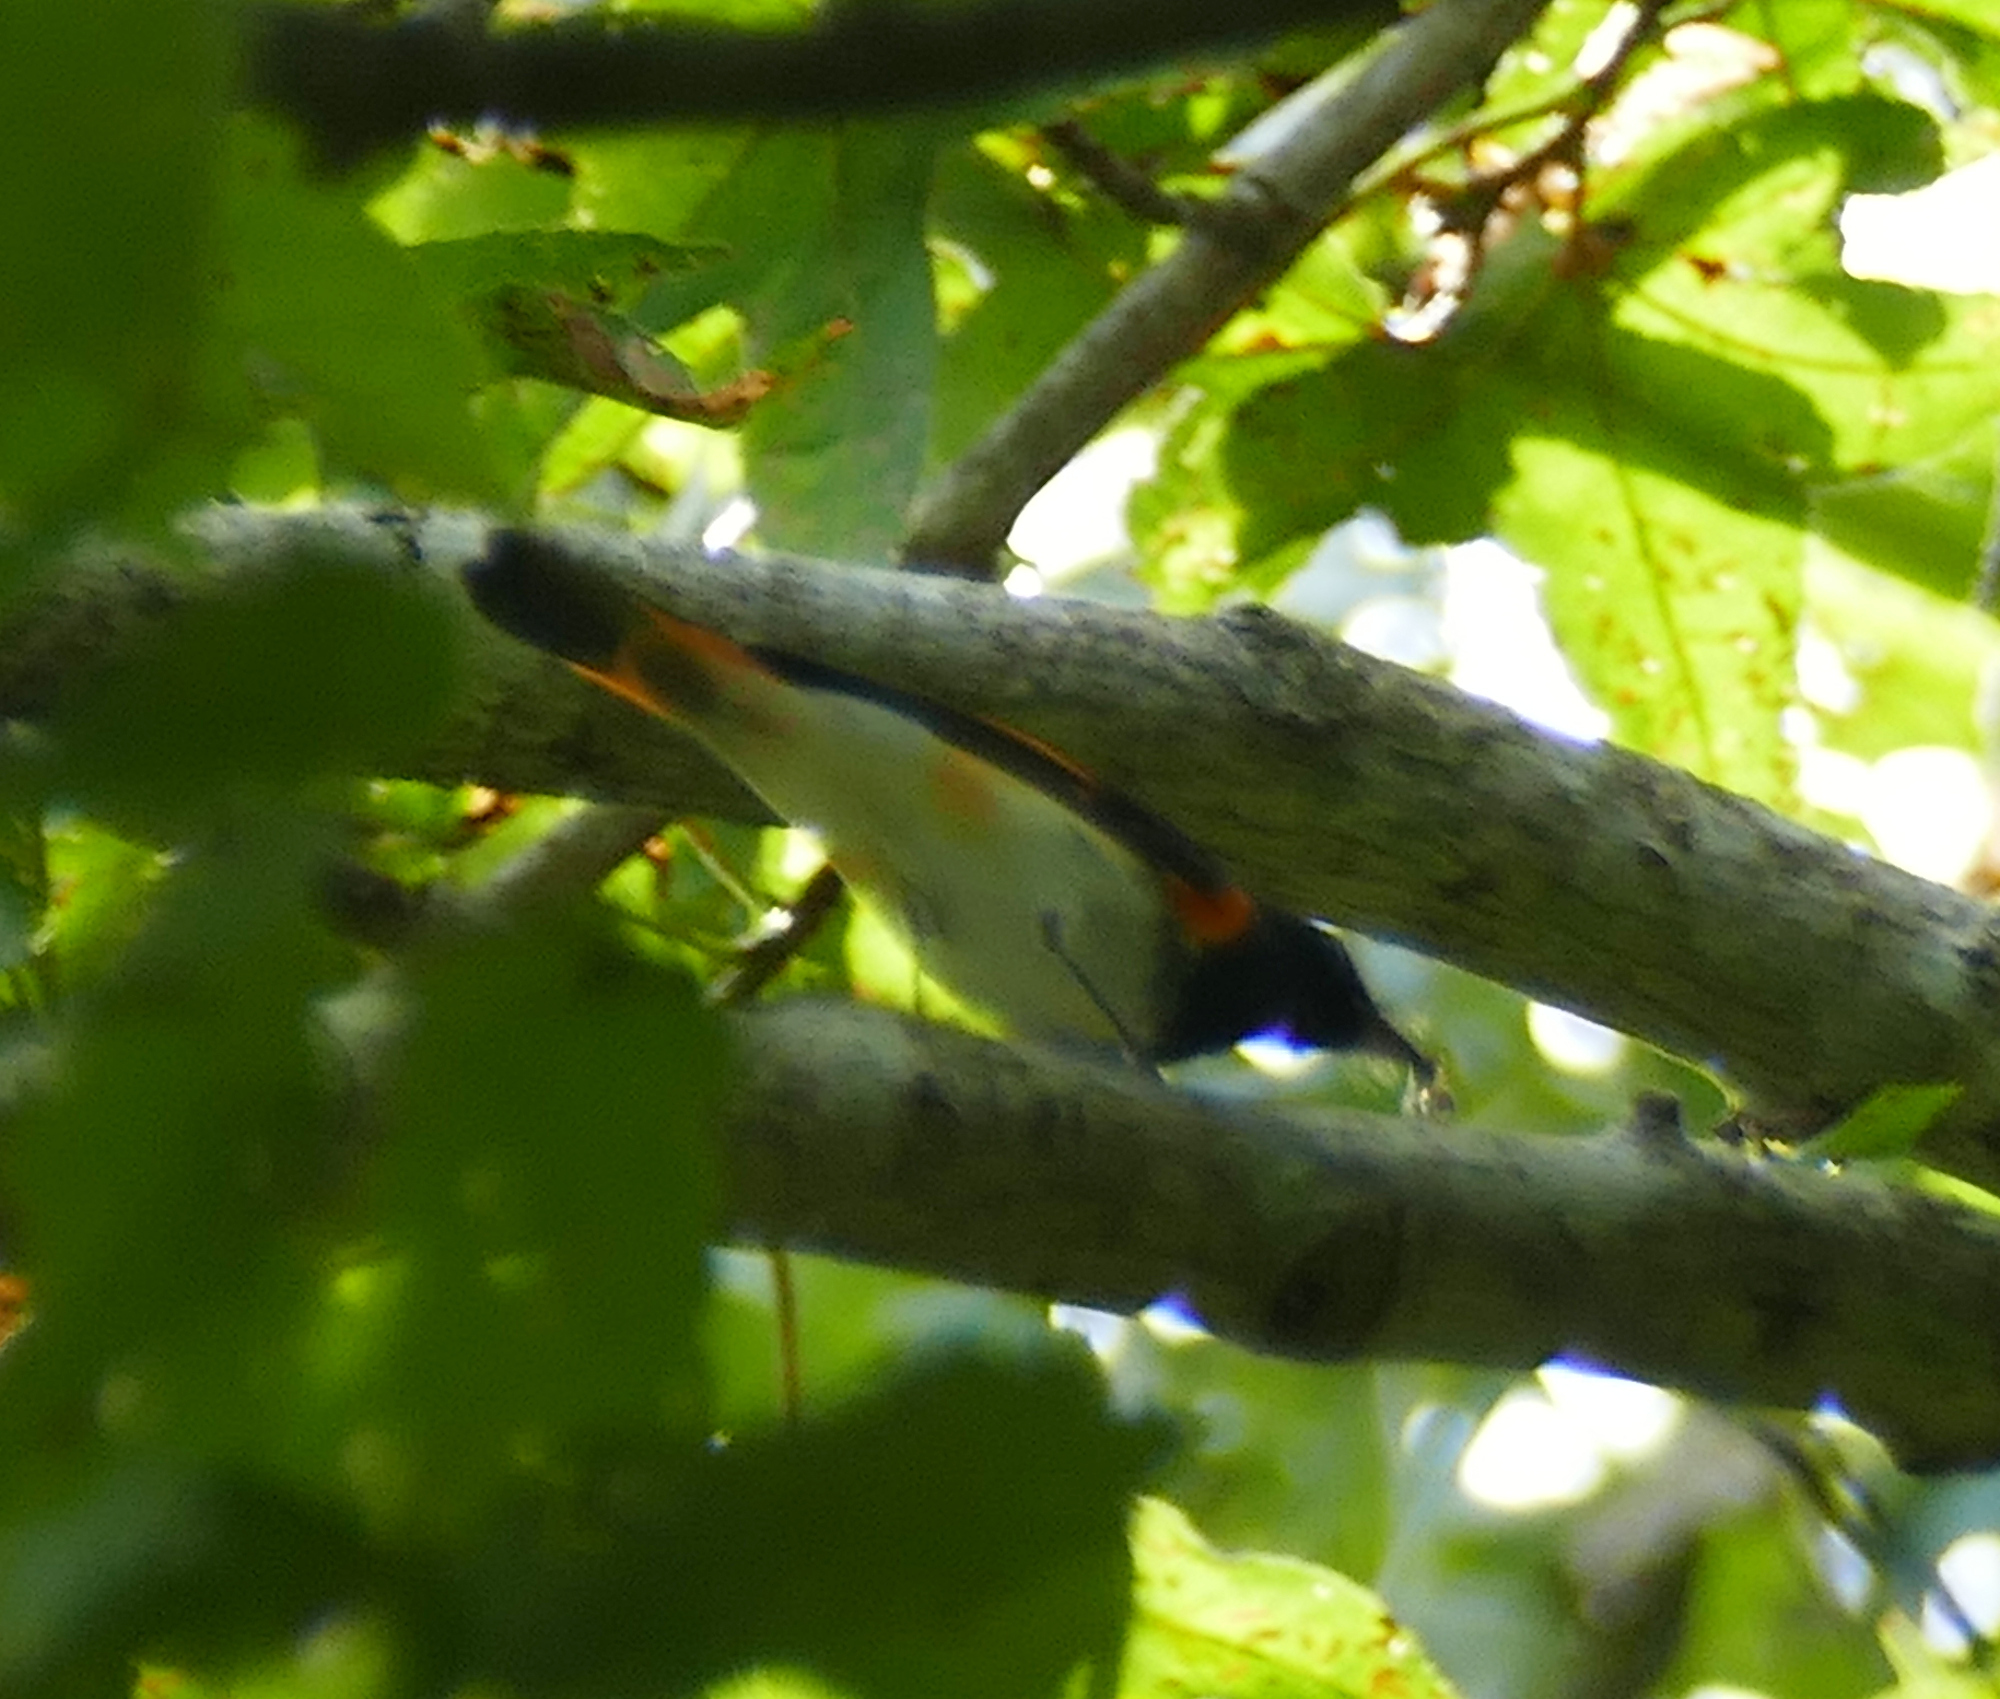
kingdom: Animalia
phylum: Chordata
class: Aves
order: Passeriformes
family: Parulidae
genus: Setophaga
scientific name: Setophaga ruticilla
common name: American redstart
